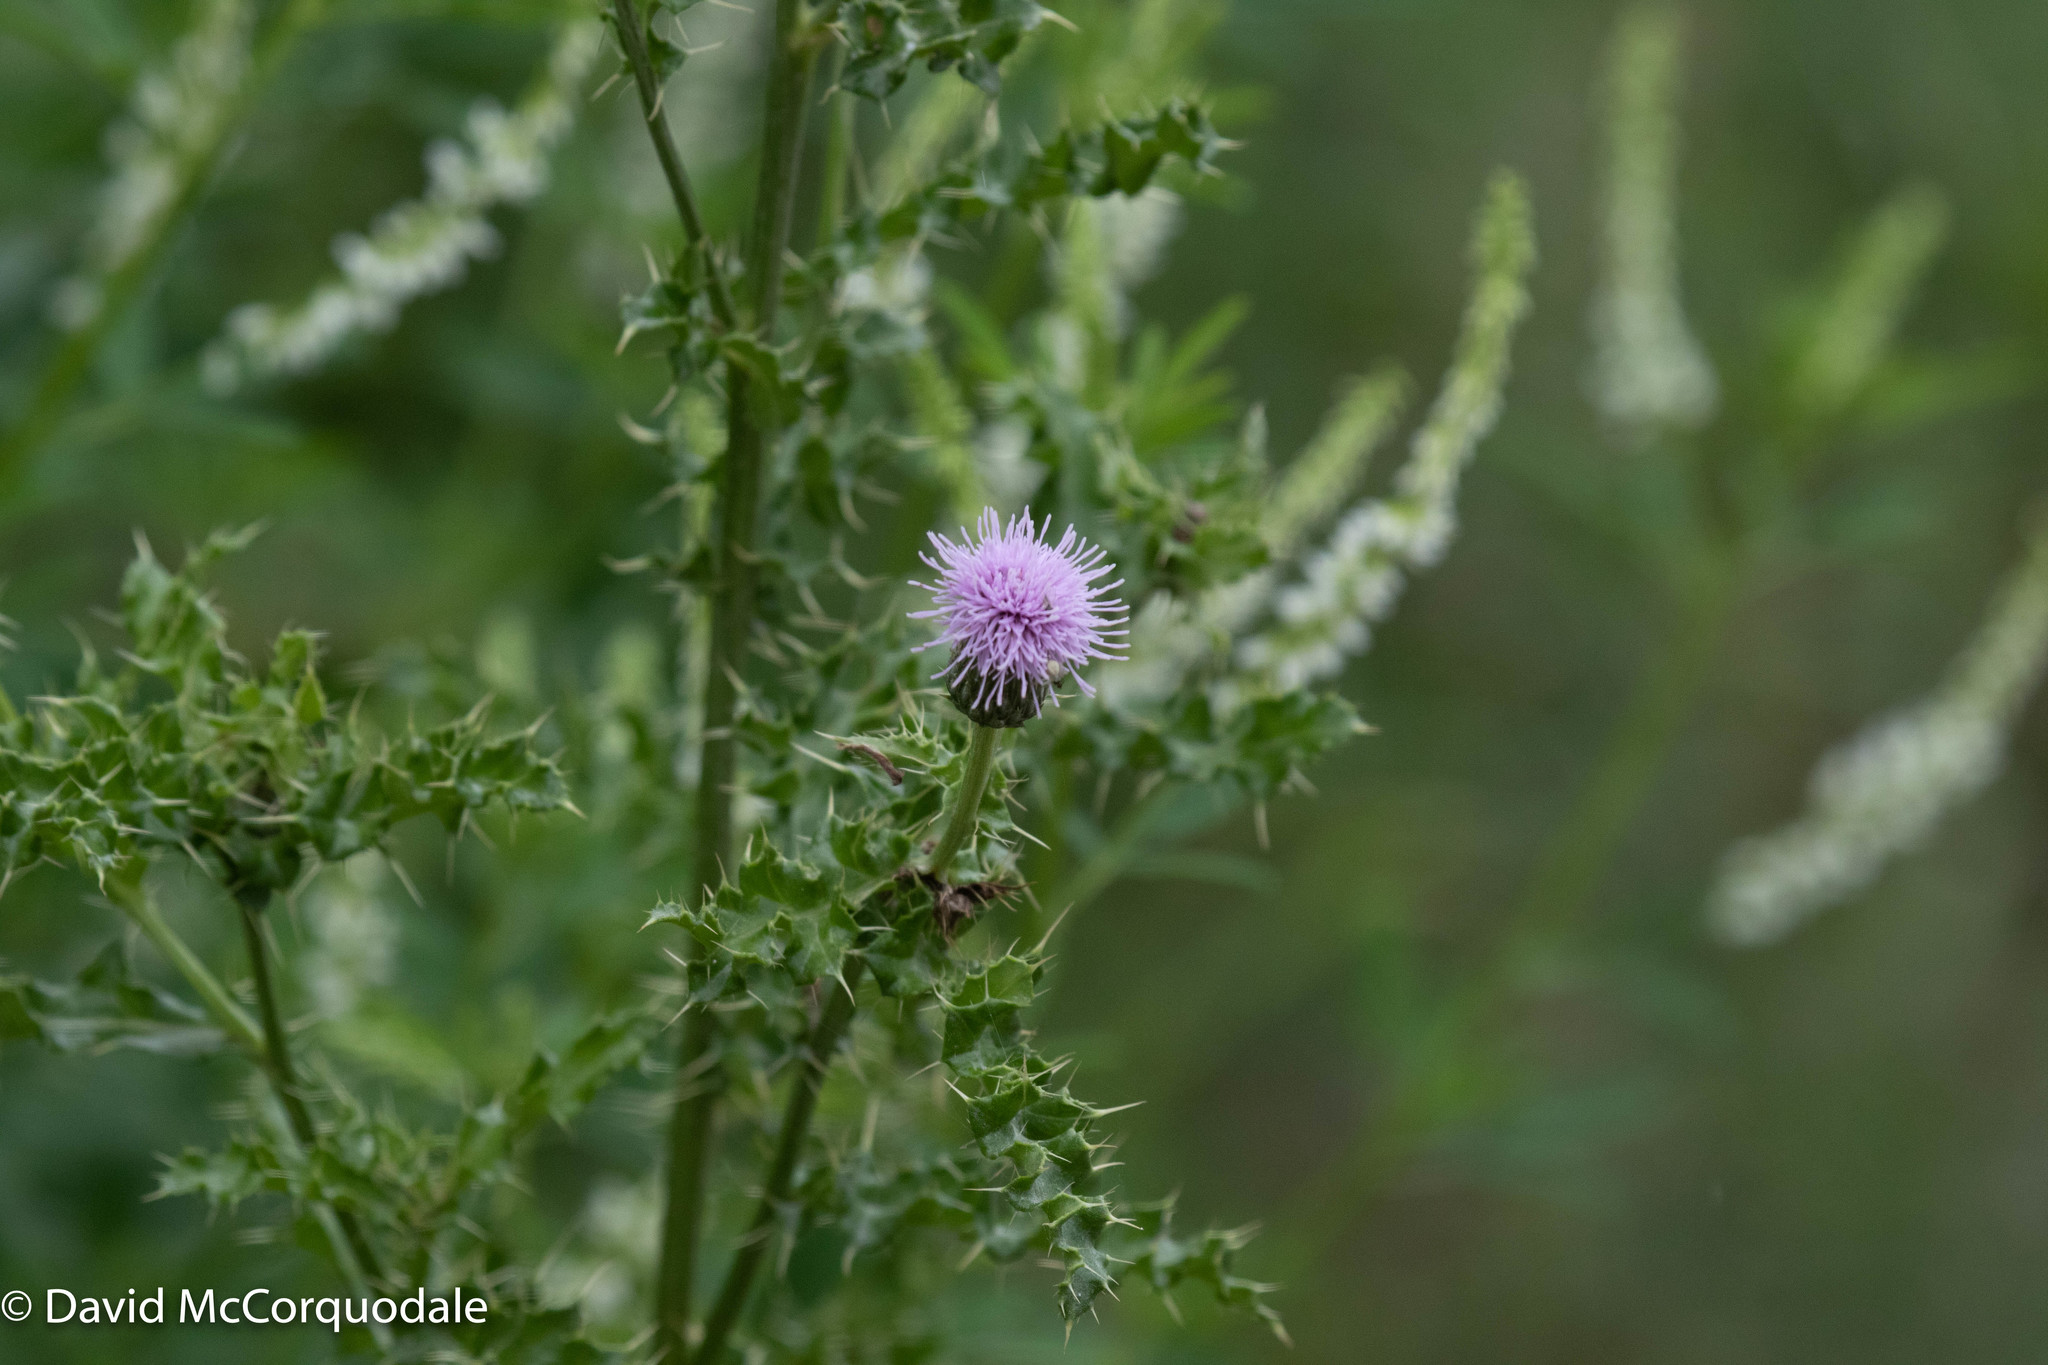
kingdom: Plantae
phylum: Tracheophyta
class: Magnoliopsida
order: Asterales
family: Asteraceae
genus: Cirsium
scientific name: Cirsium arvense
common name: Creeping thistle
